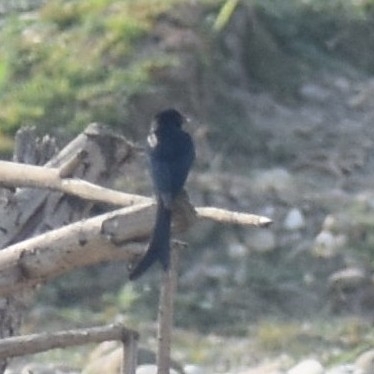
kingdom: Animalia
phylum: Chordata
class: Aves
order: Passeriformes
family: Dicruridae
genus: Dicrurus
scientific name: Dicrurus macrocercus
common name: Black drongo
